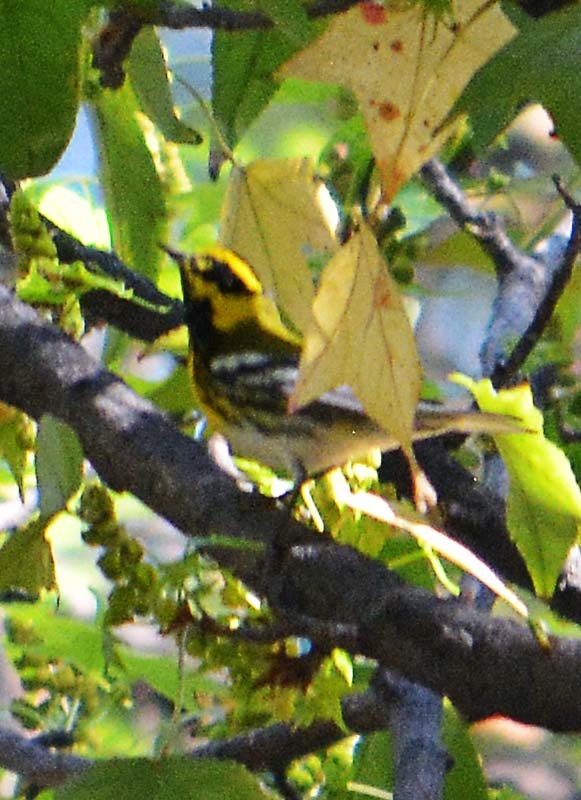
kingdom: Animalia
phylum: Chordata
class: Aves
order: Passeriformes
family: Parulidae
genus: Setophaga
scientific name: Setophaga townsendi
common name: Townsend's warbler
